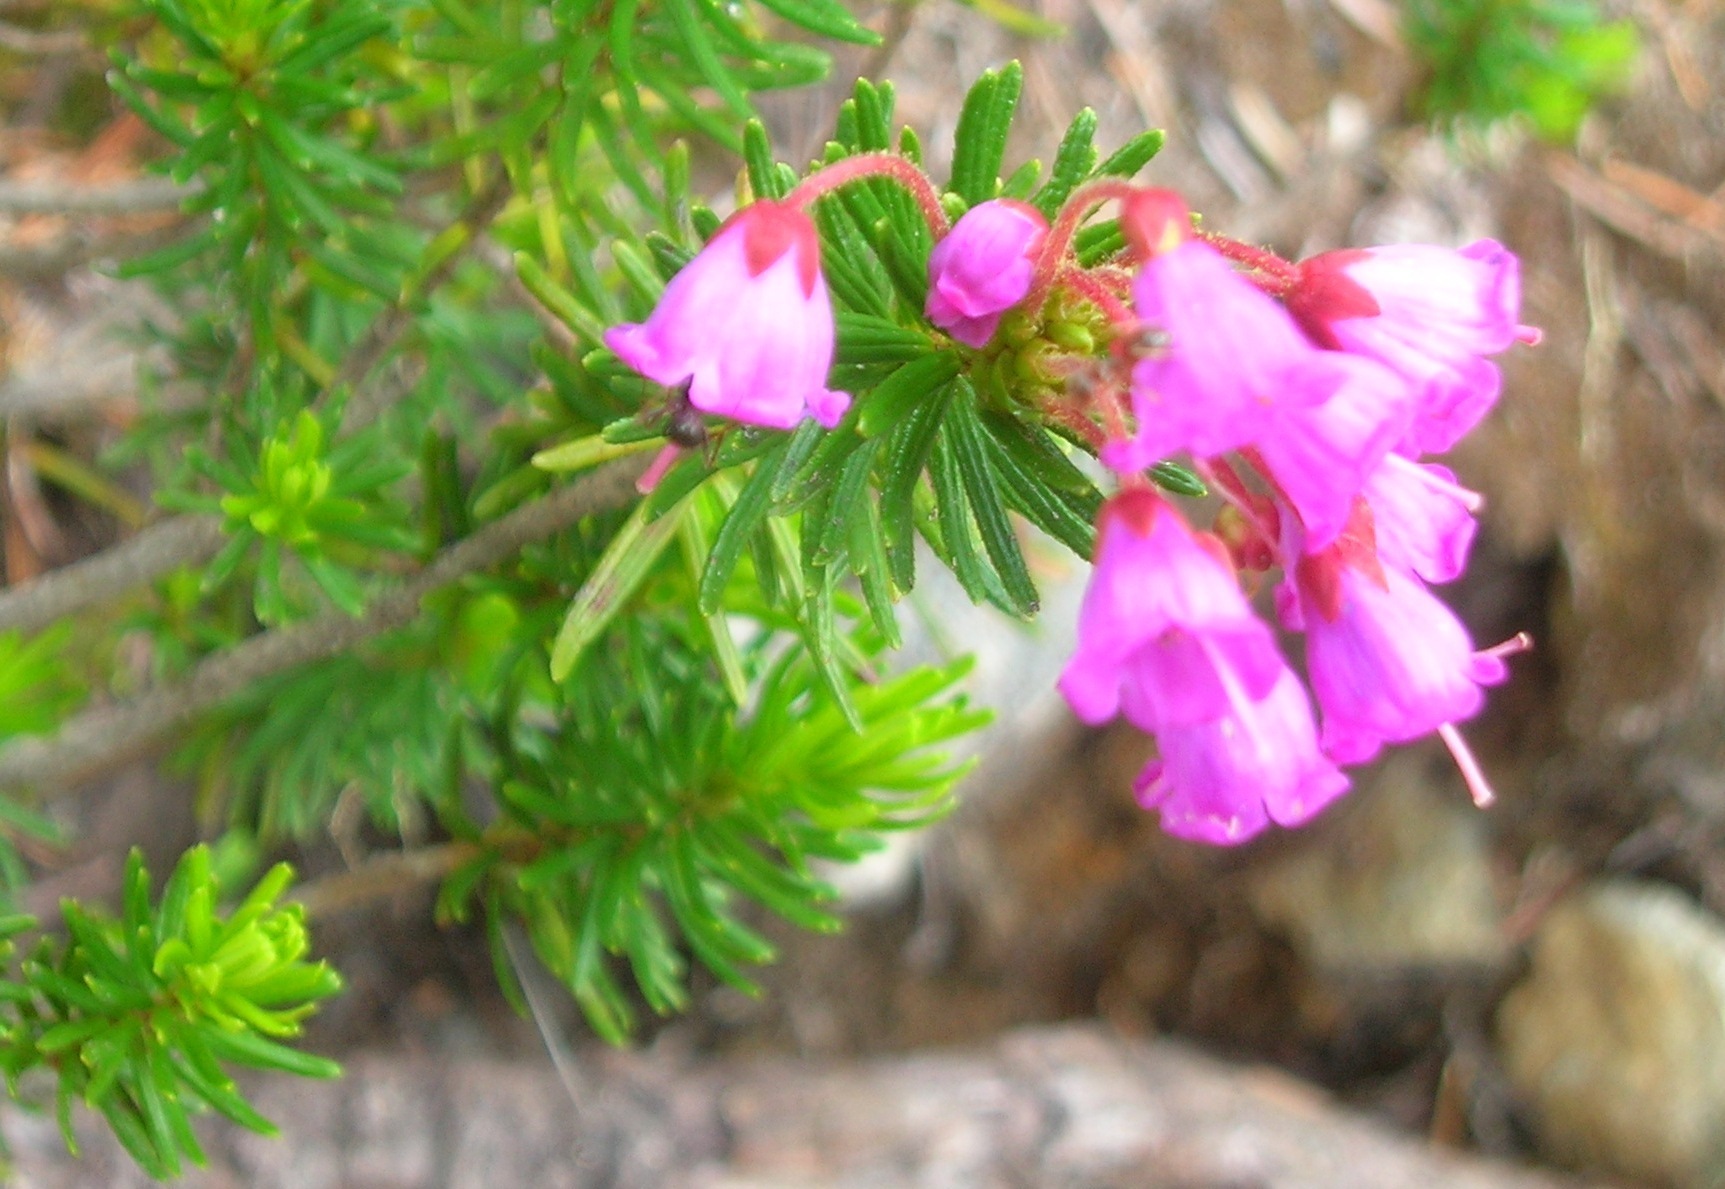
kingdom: Plantae
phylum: Tracheophyta
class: Magnoliopsida
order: Ericales
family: Ericaceae
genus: Phyllodoce
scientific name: Phyllodoce empetriformis
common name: Pink mountain heather
